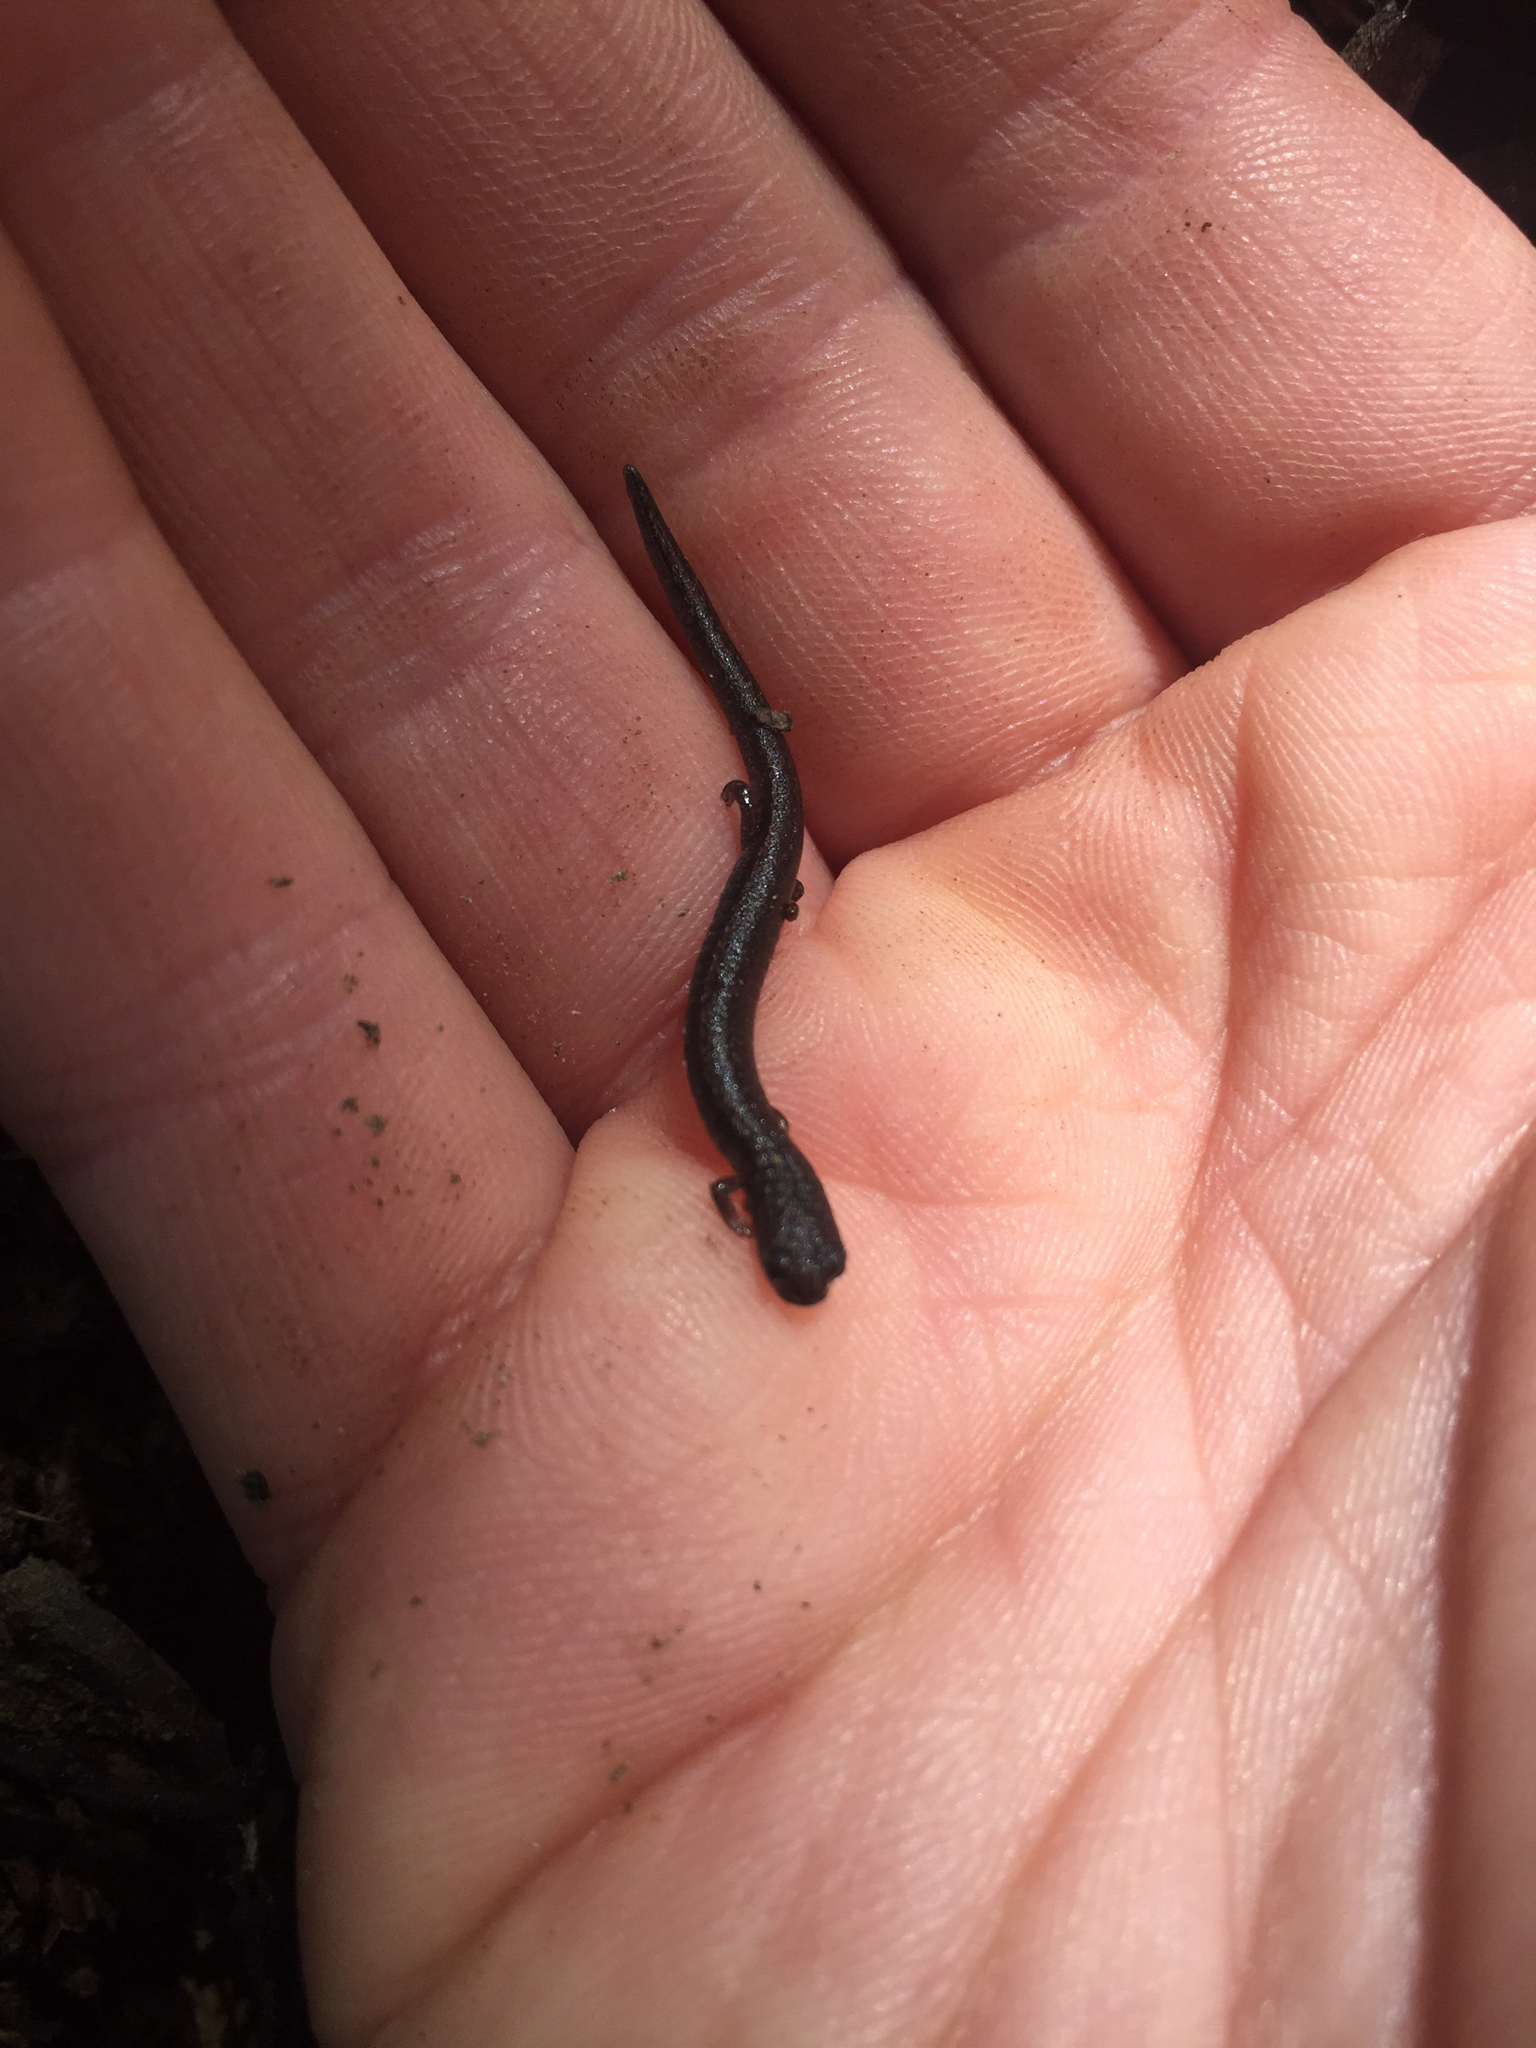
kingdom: Animalia
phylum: Chordata
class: Amphibia
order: Caudata
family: Plethodontidae
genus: Batrachoseps
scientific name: Batrachoseps attenuatus
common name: California slender salamander
